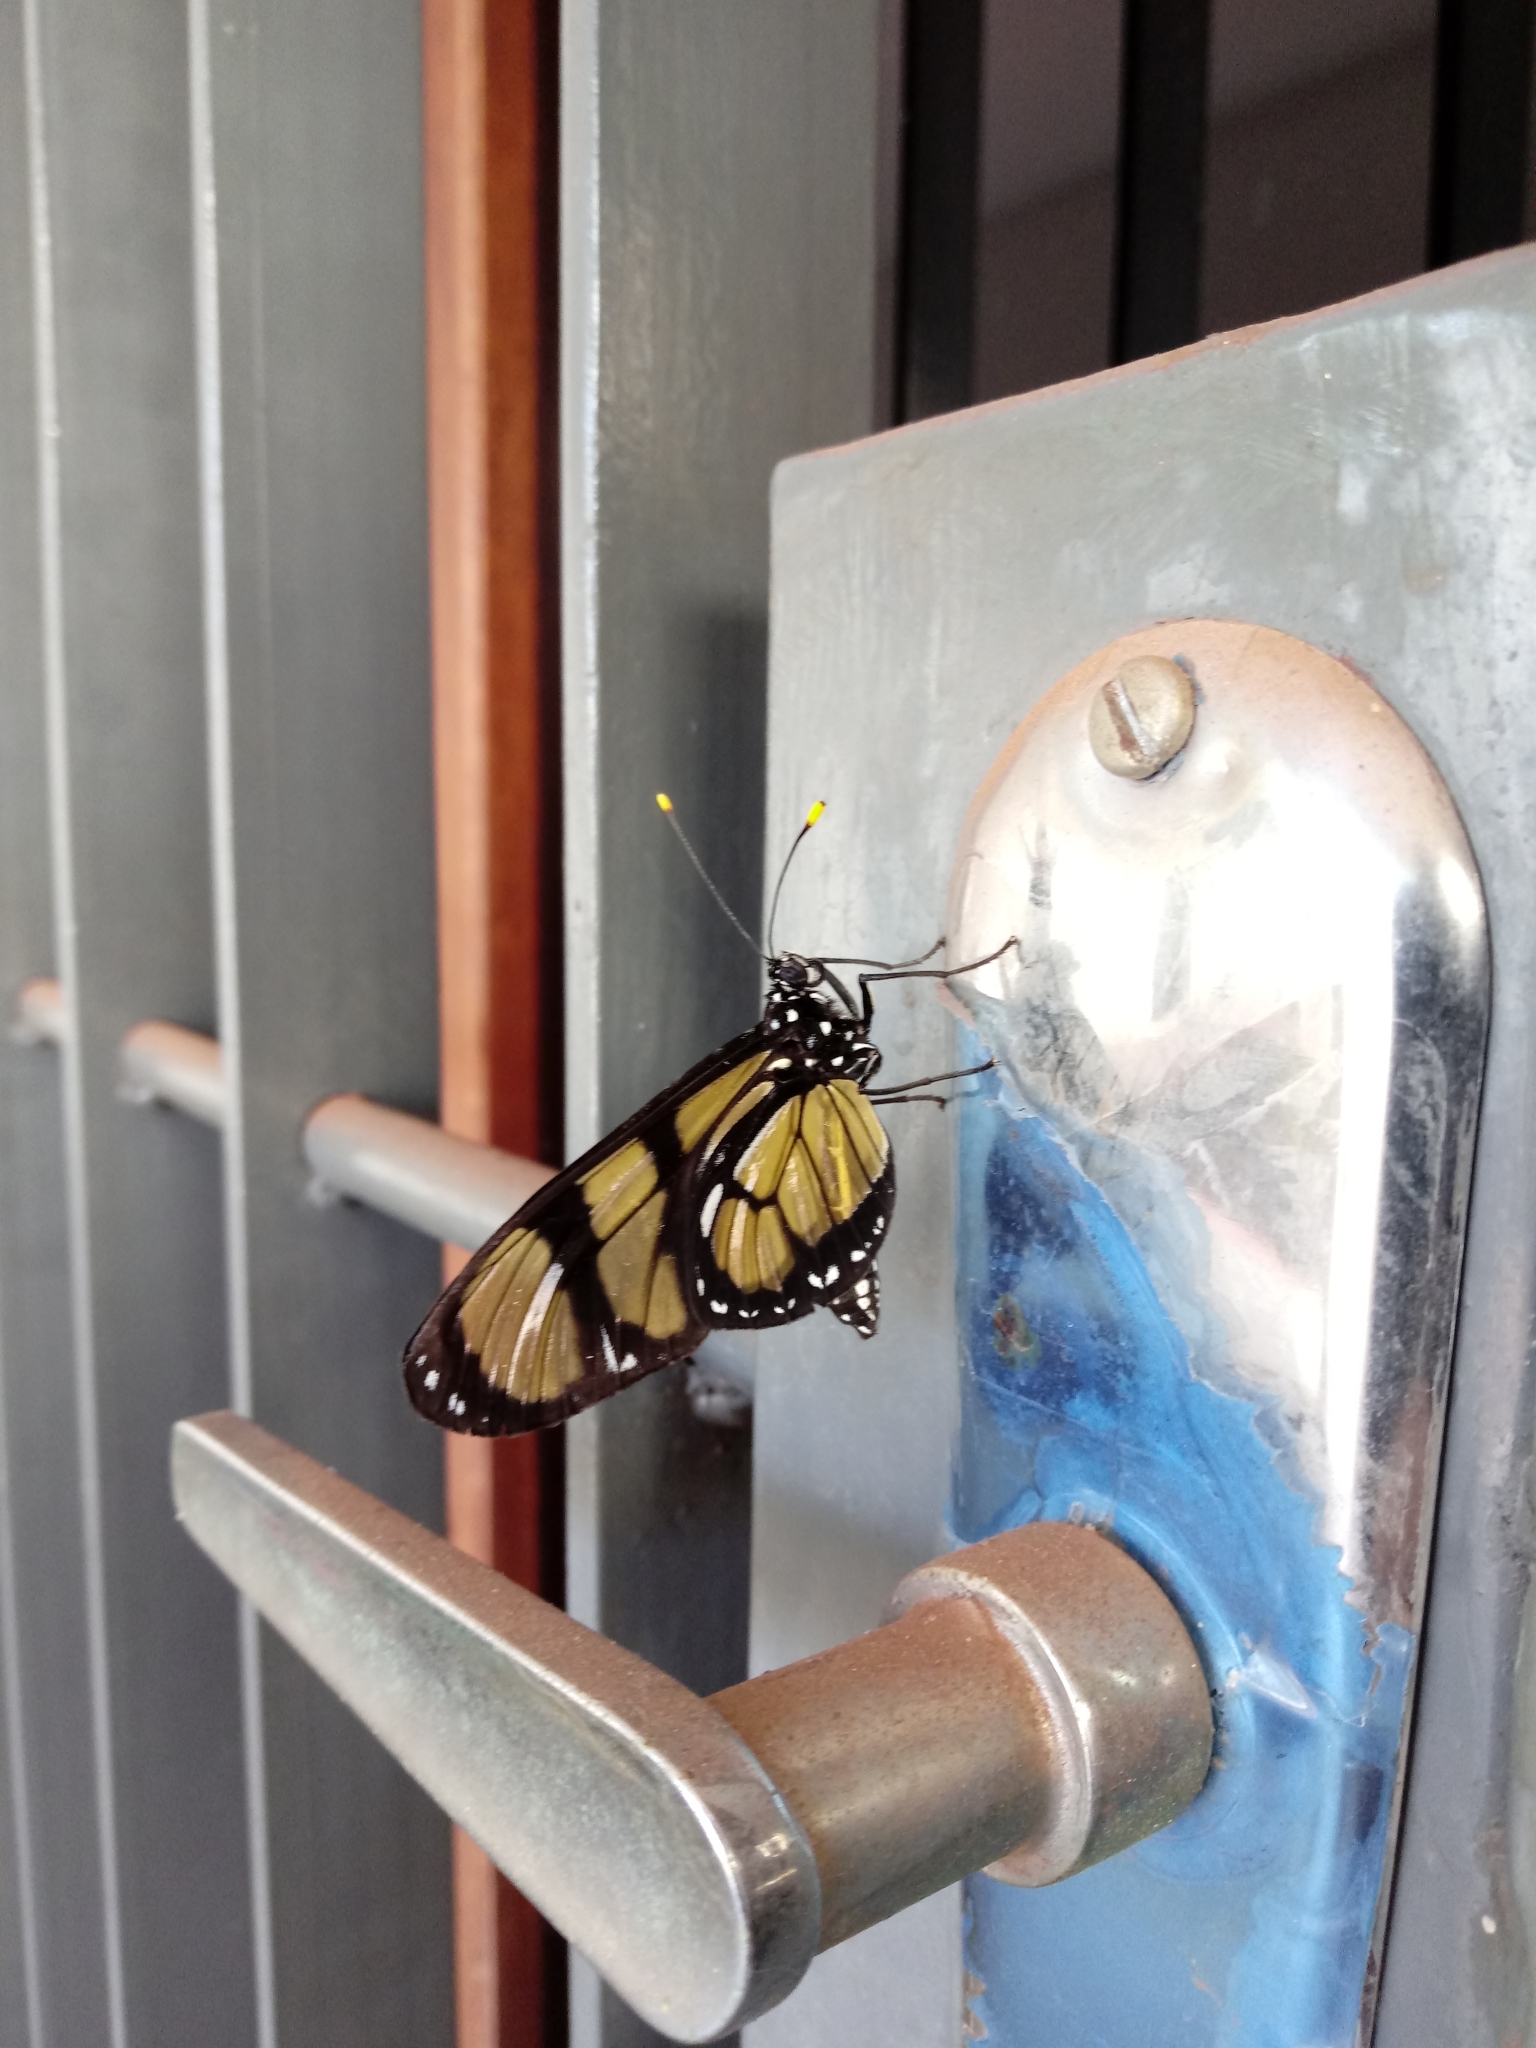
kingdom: Animalia
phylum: Arthropoda
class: Insecta
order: Lepidoptera
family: Nymphalidae
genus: Methona
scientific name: Methona themisto
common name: Themisto amberwing
